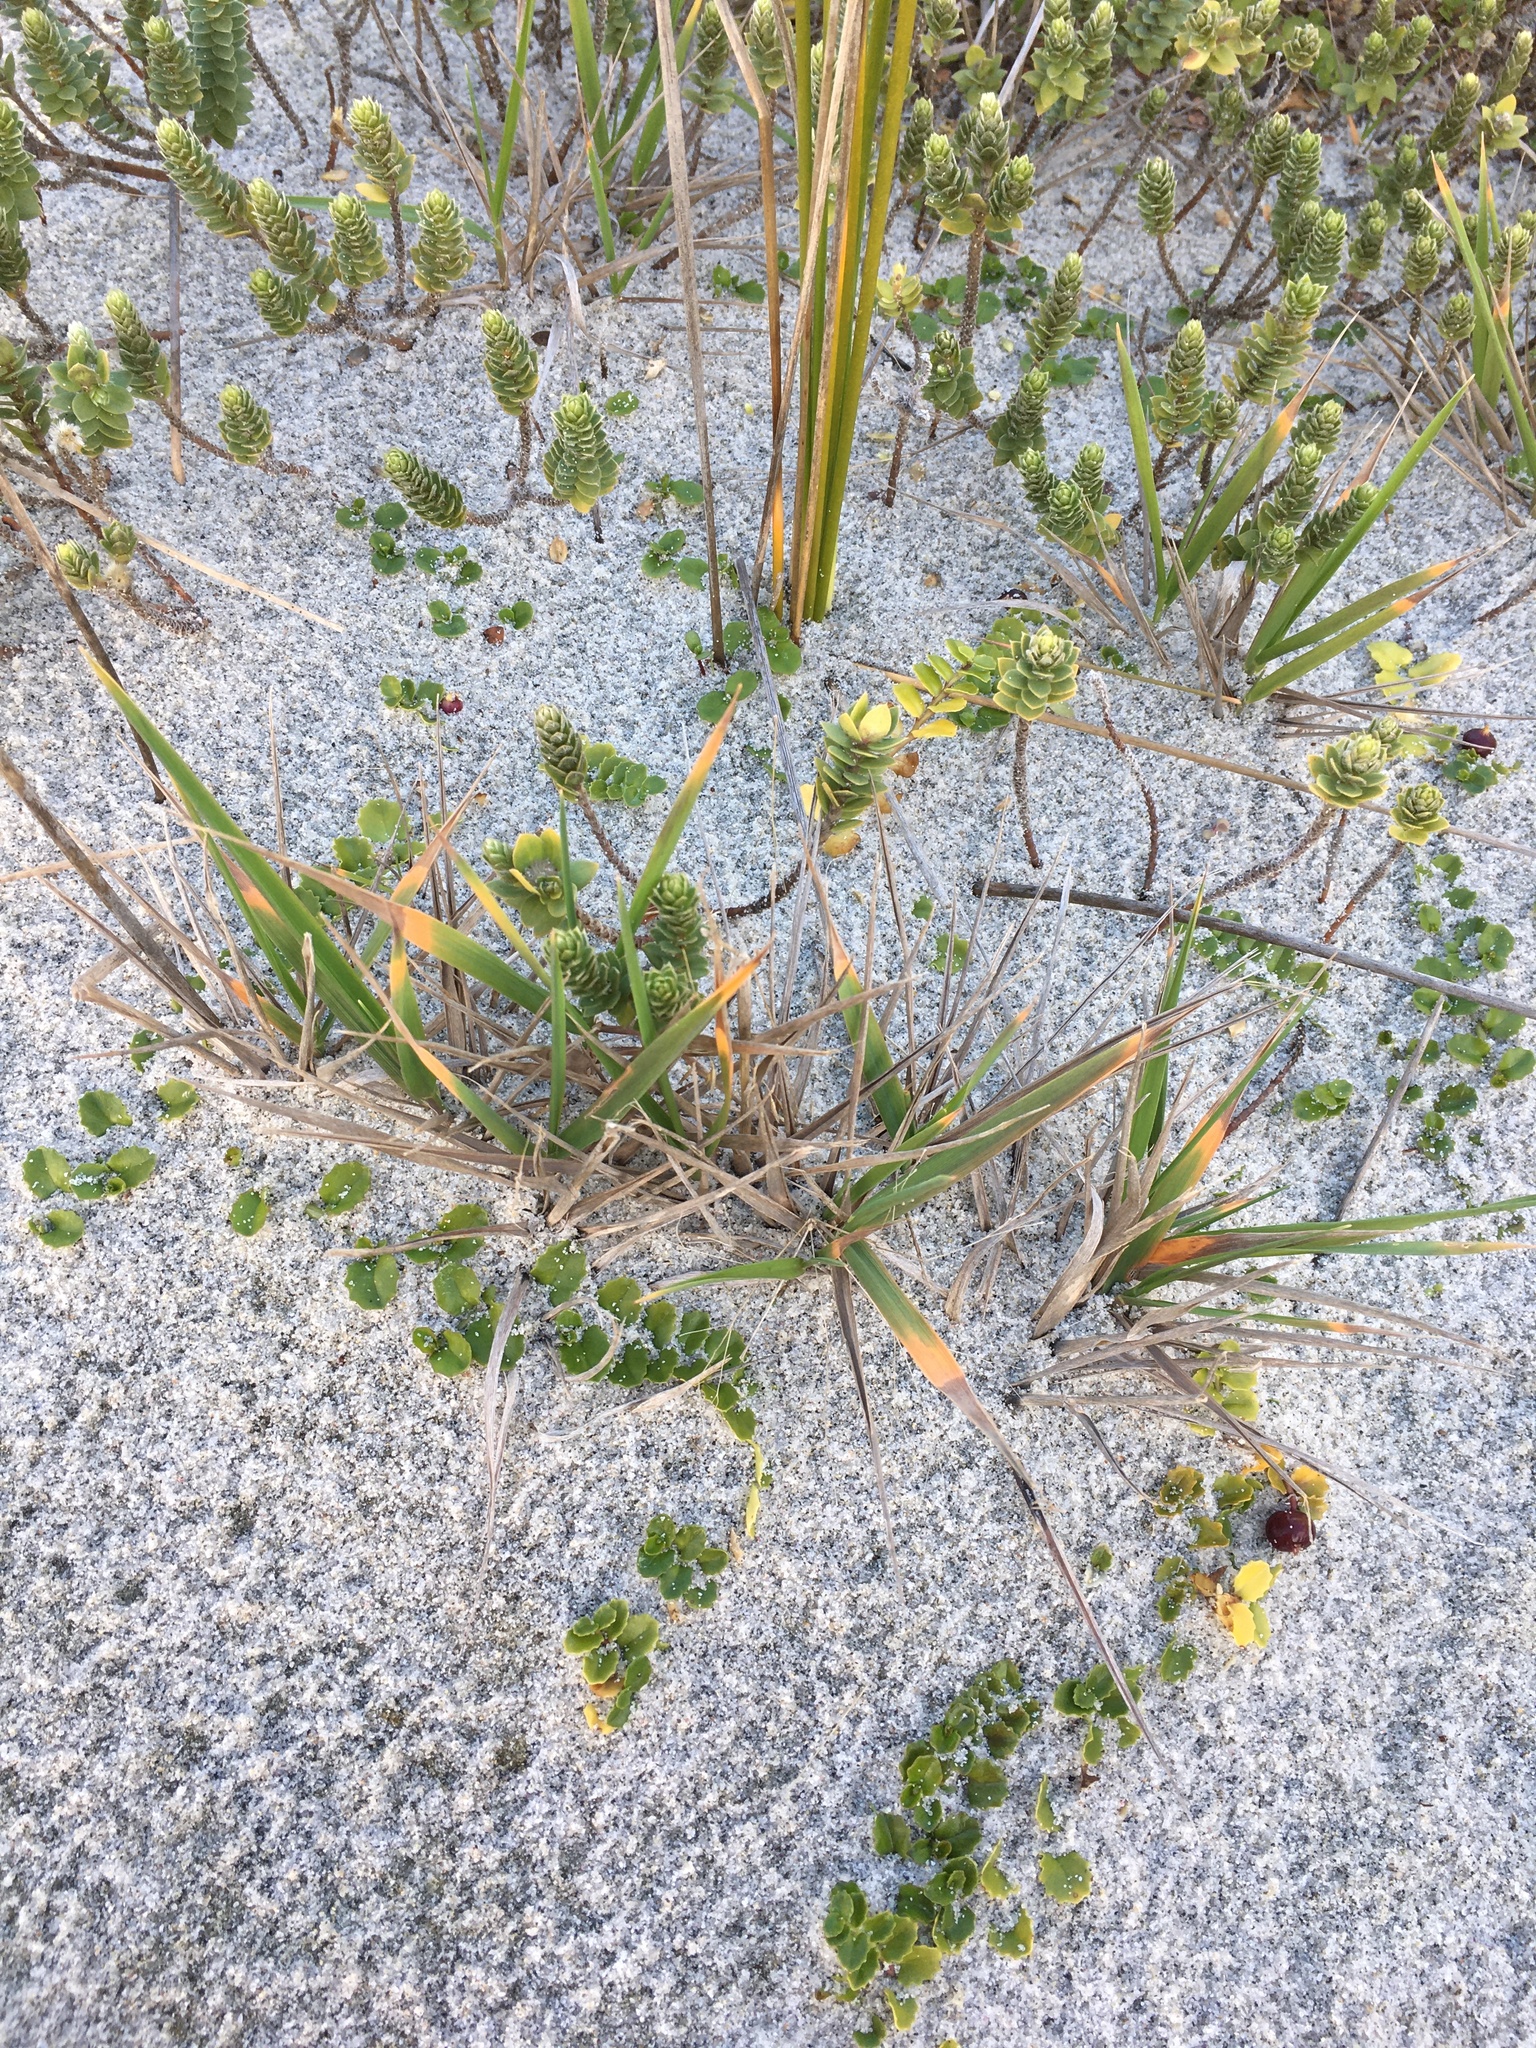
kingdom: Plantae
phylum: Tracheophyta
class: Liliopsida
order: Poales
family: Poaceae
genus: Lachnagrostis
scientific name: Lachnagrostis billardierei
